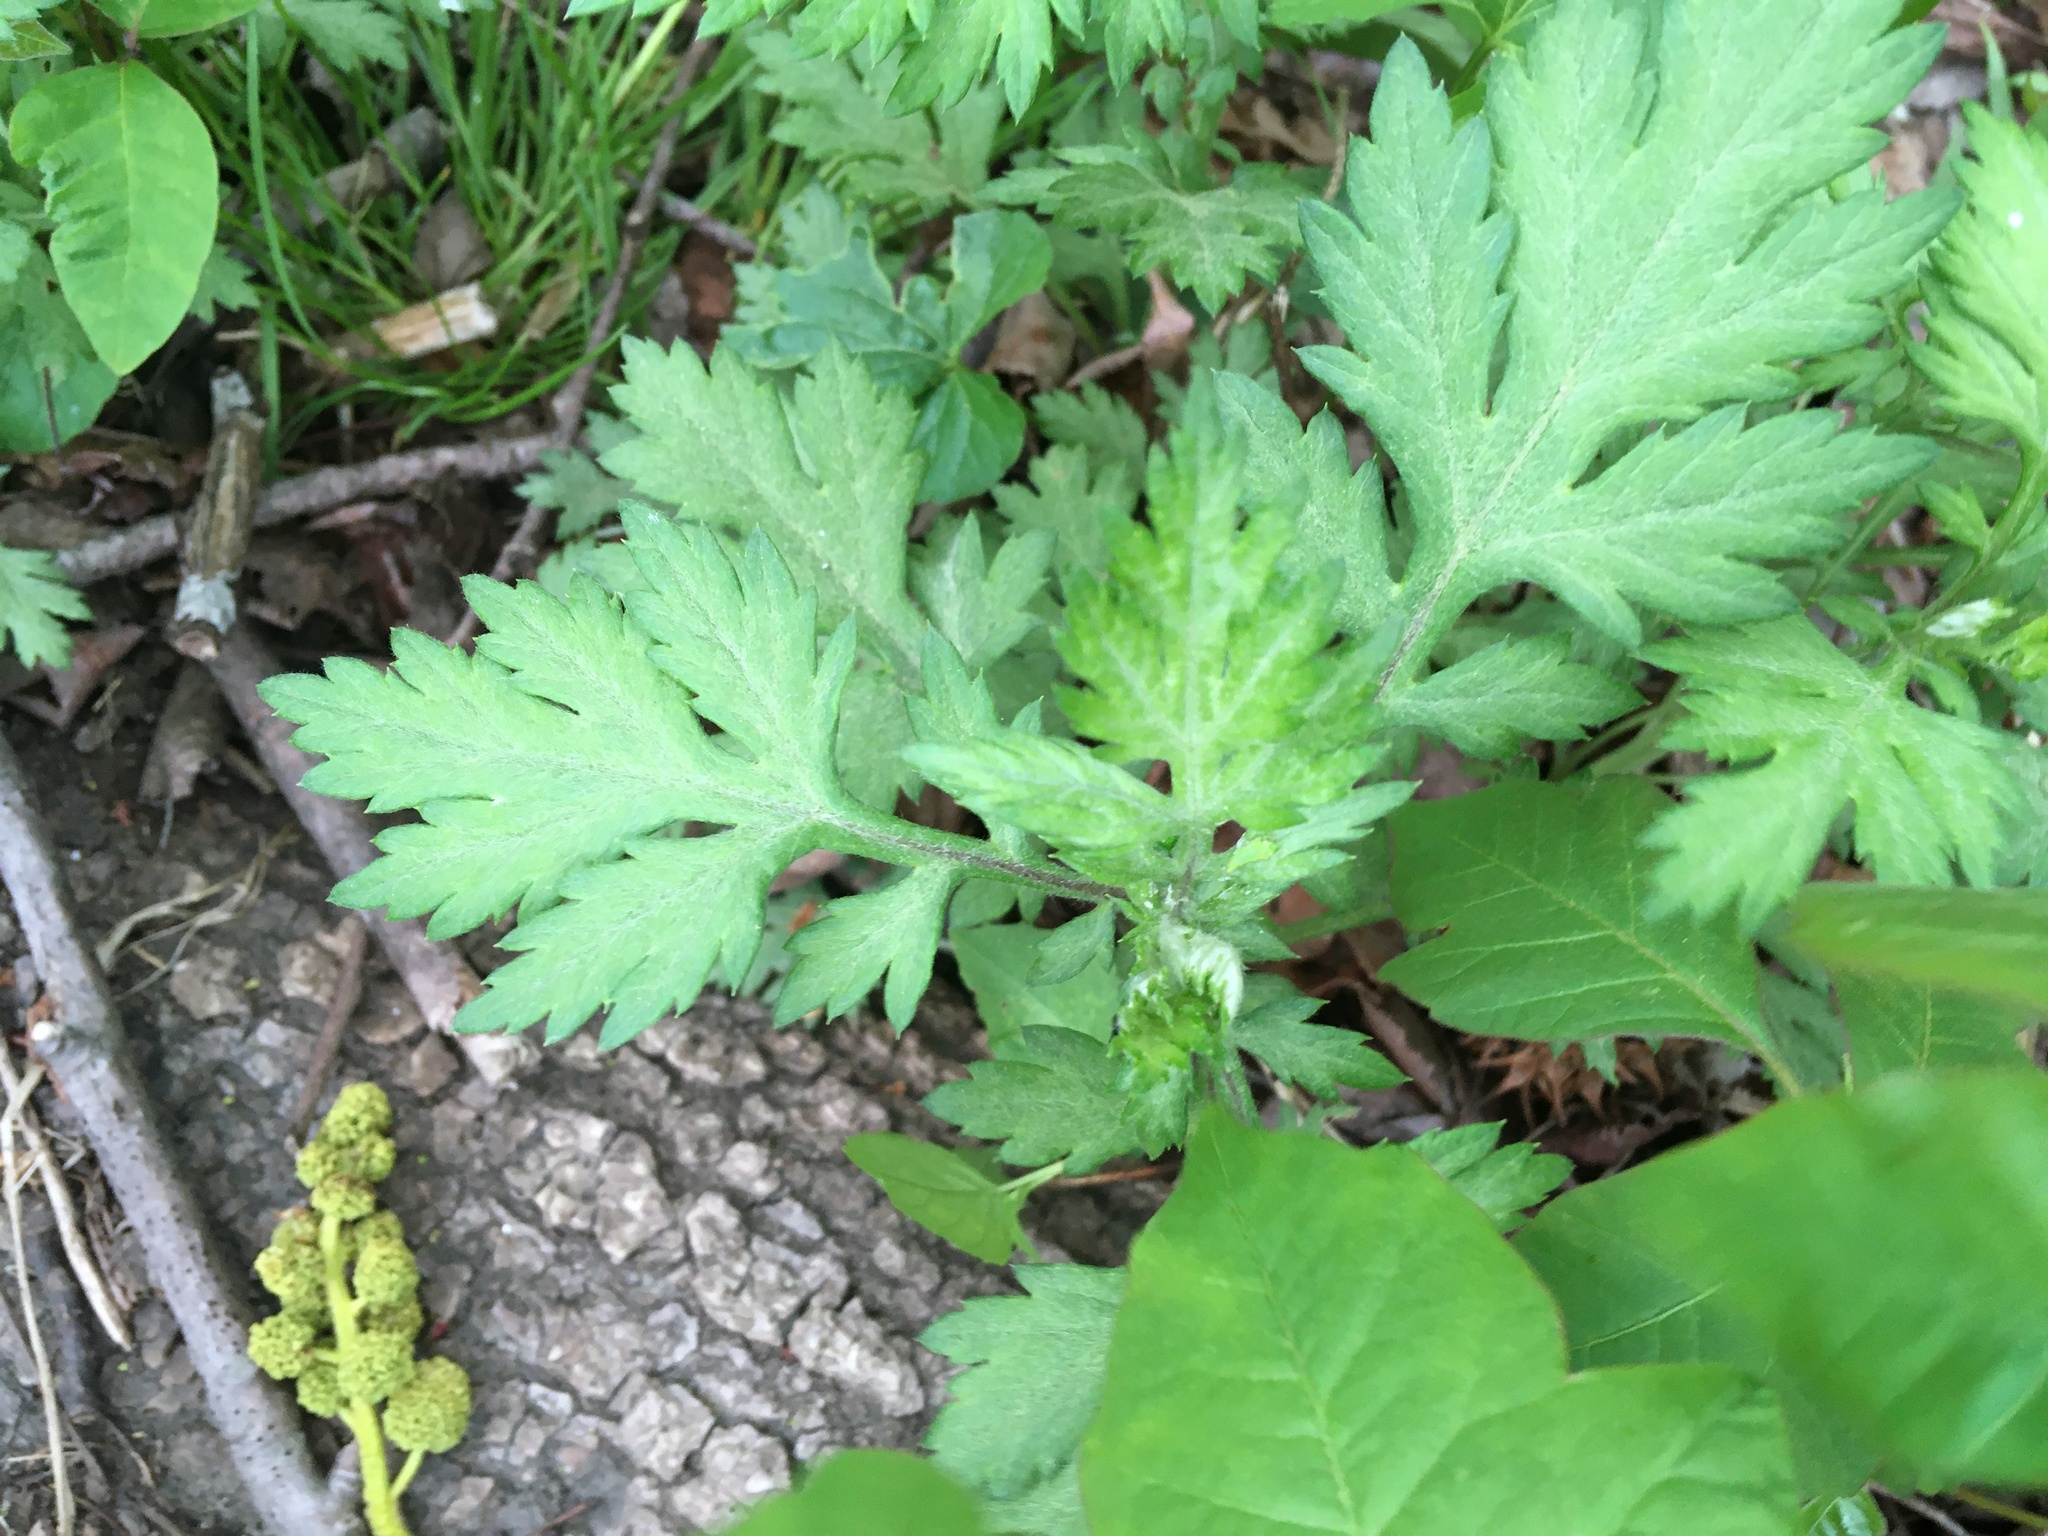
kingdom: Plantae
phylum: Tracheophyta
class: Magnoliopsida
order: Asterales
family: Asteraceae
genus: Artemisia
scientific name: Artemisia vulgaris
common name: Mugwort
